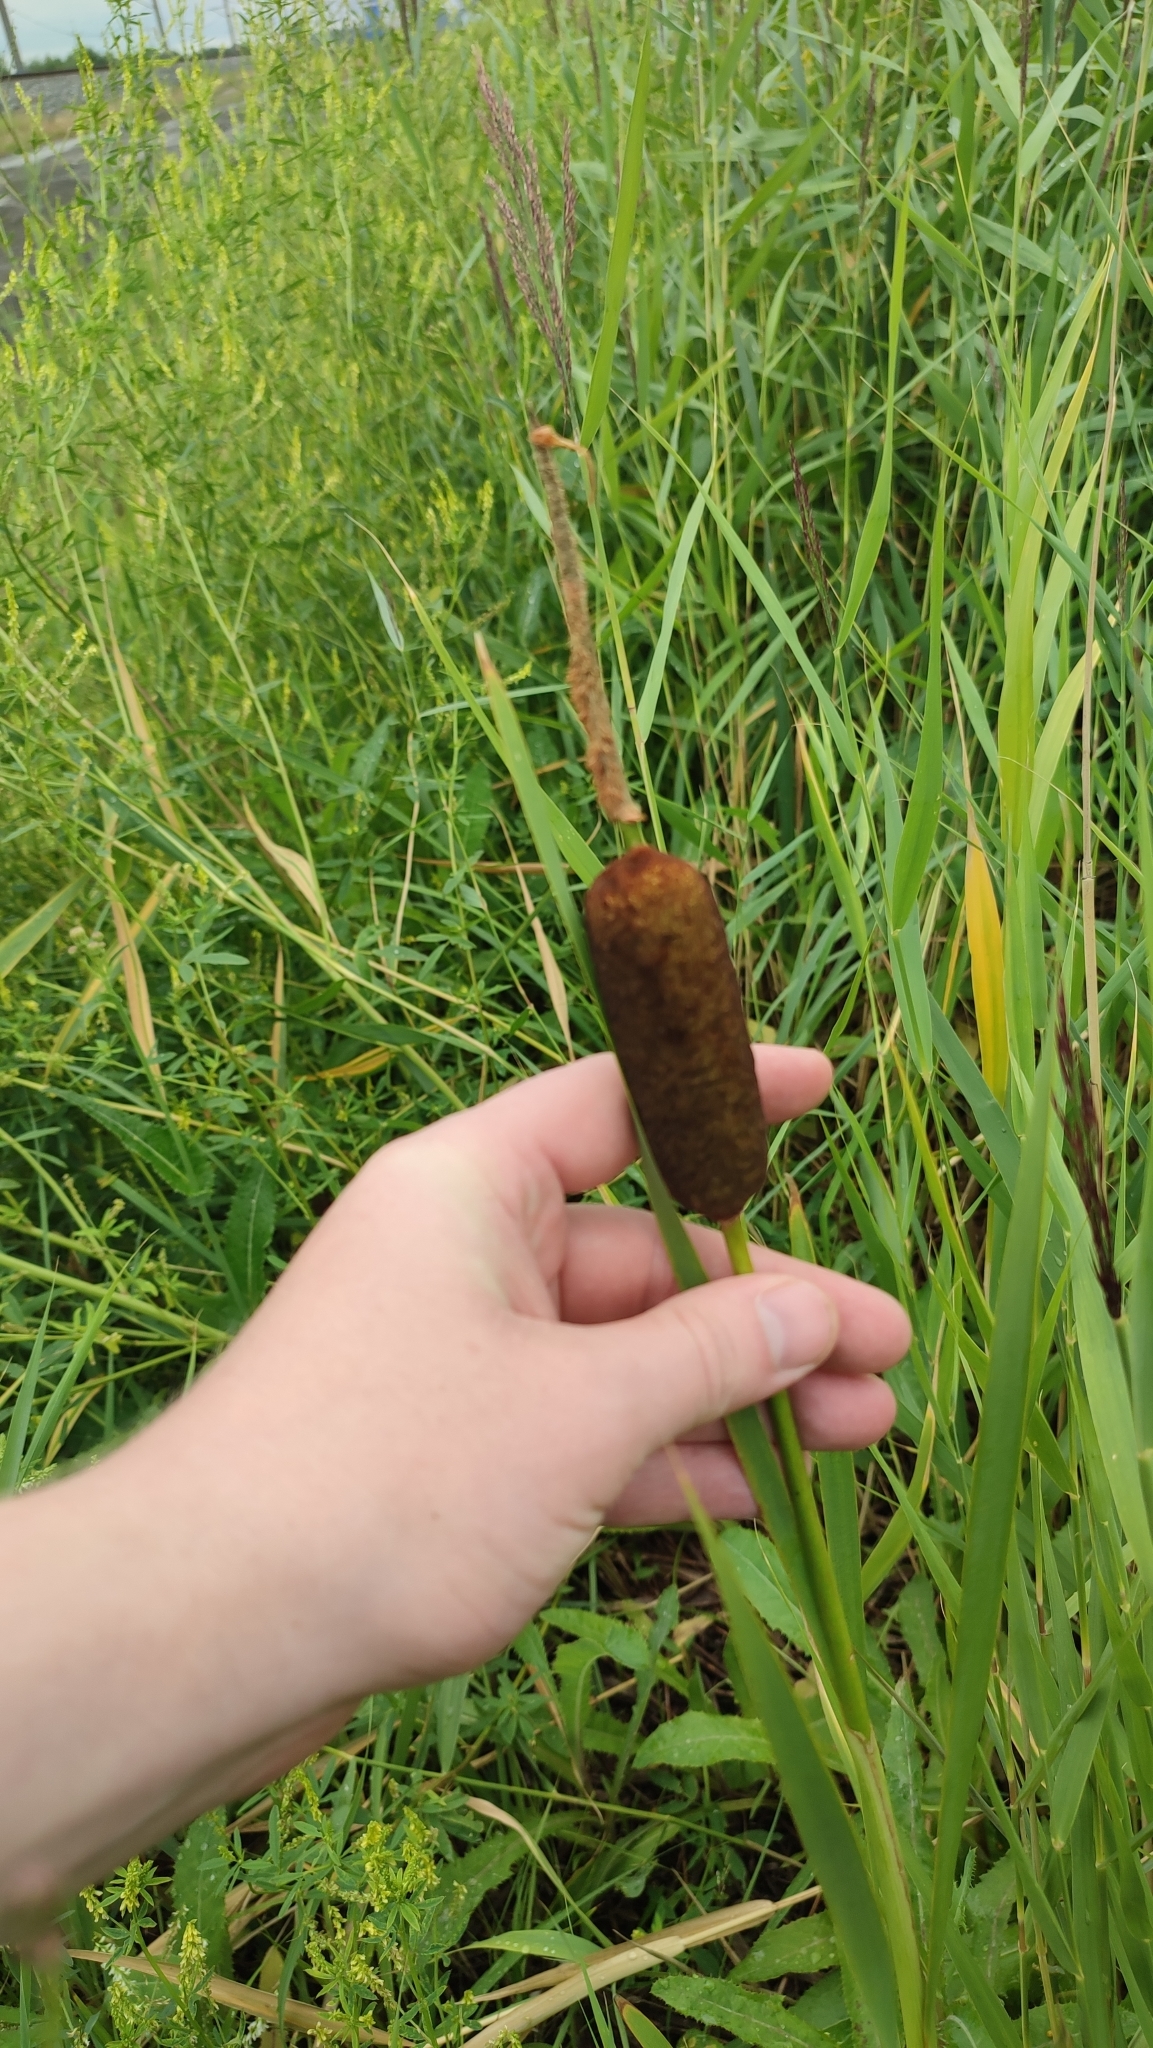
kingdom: Plantae
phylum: Tracheophyta
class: Liliopsida
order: Poales
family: Typhaceae
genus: Typha
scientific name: Typha incana
